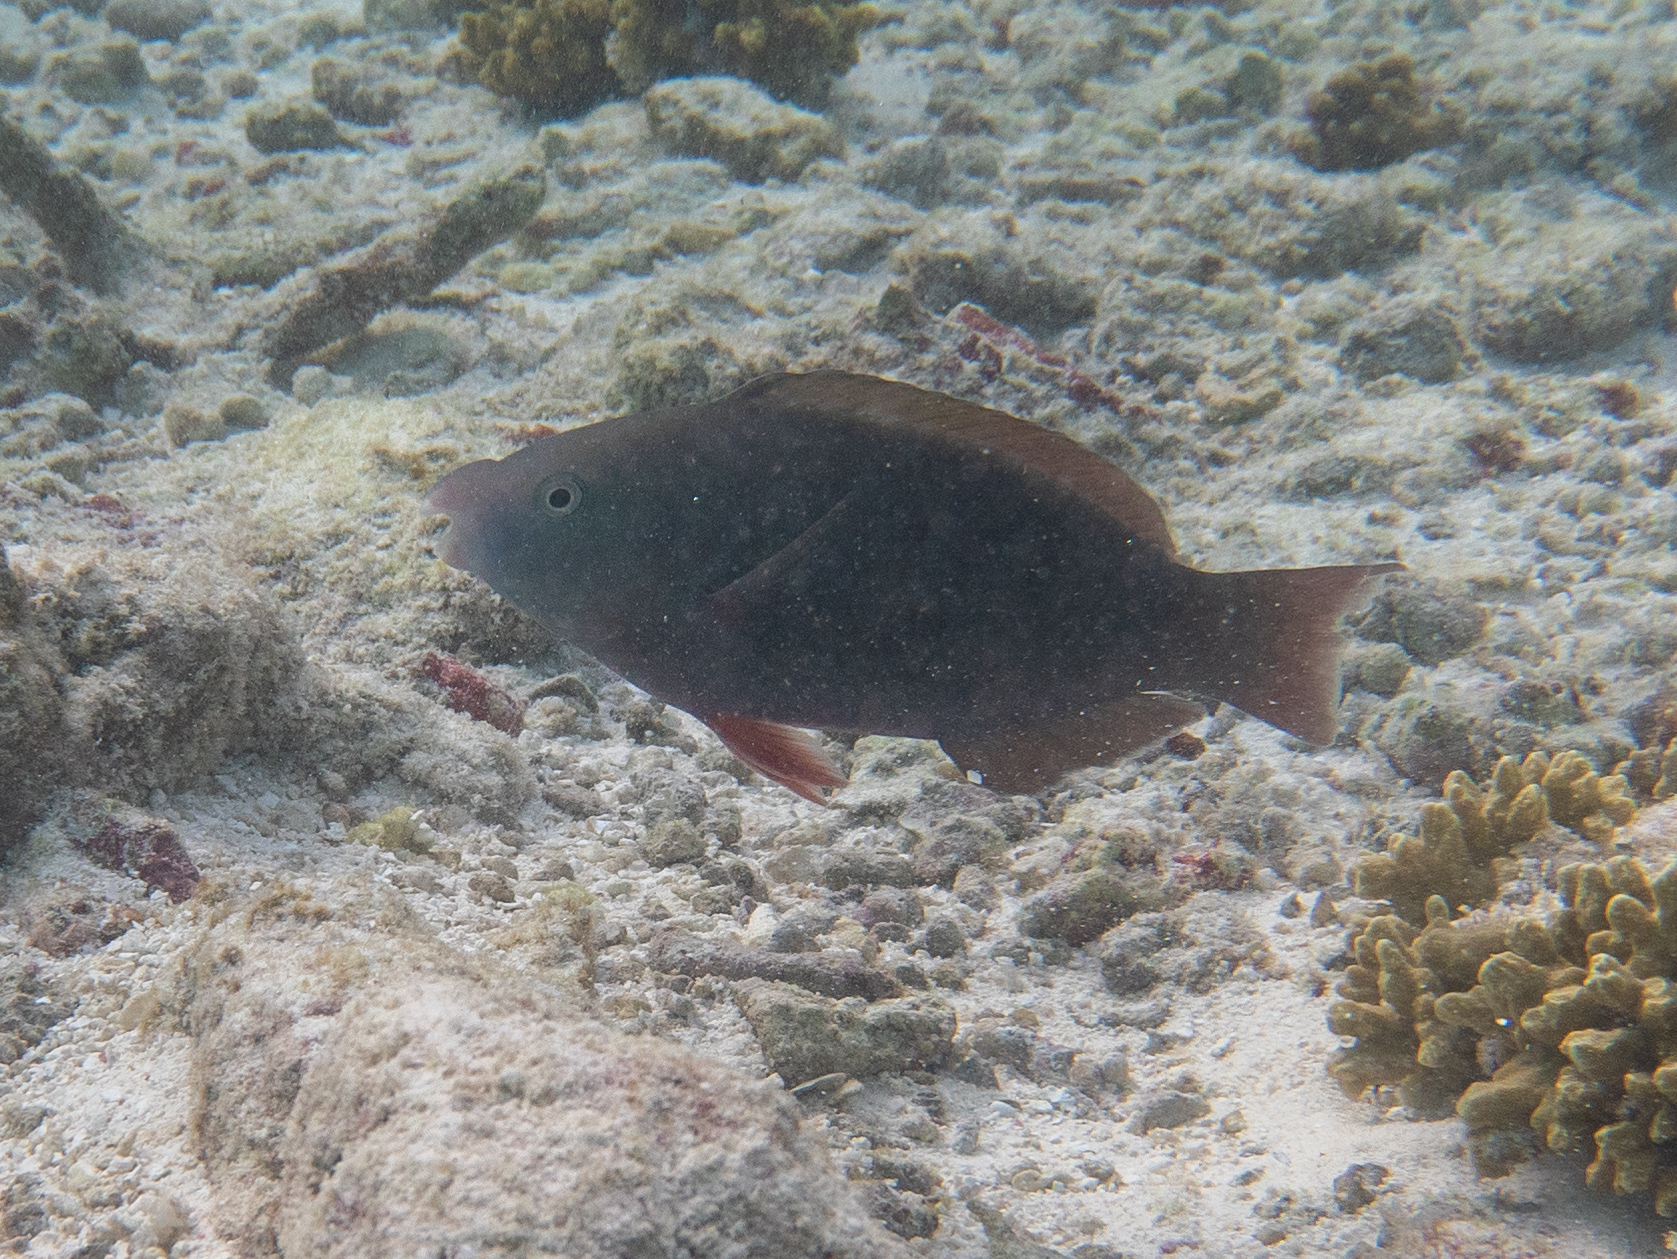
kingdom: Animalia
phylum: Chordata
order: Perciformes
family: Scaridae
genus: Scarus
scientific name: Scarus psittacus
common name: Palenose parrotfish
